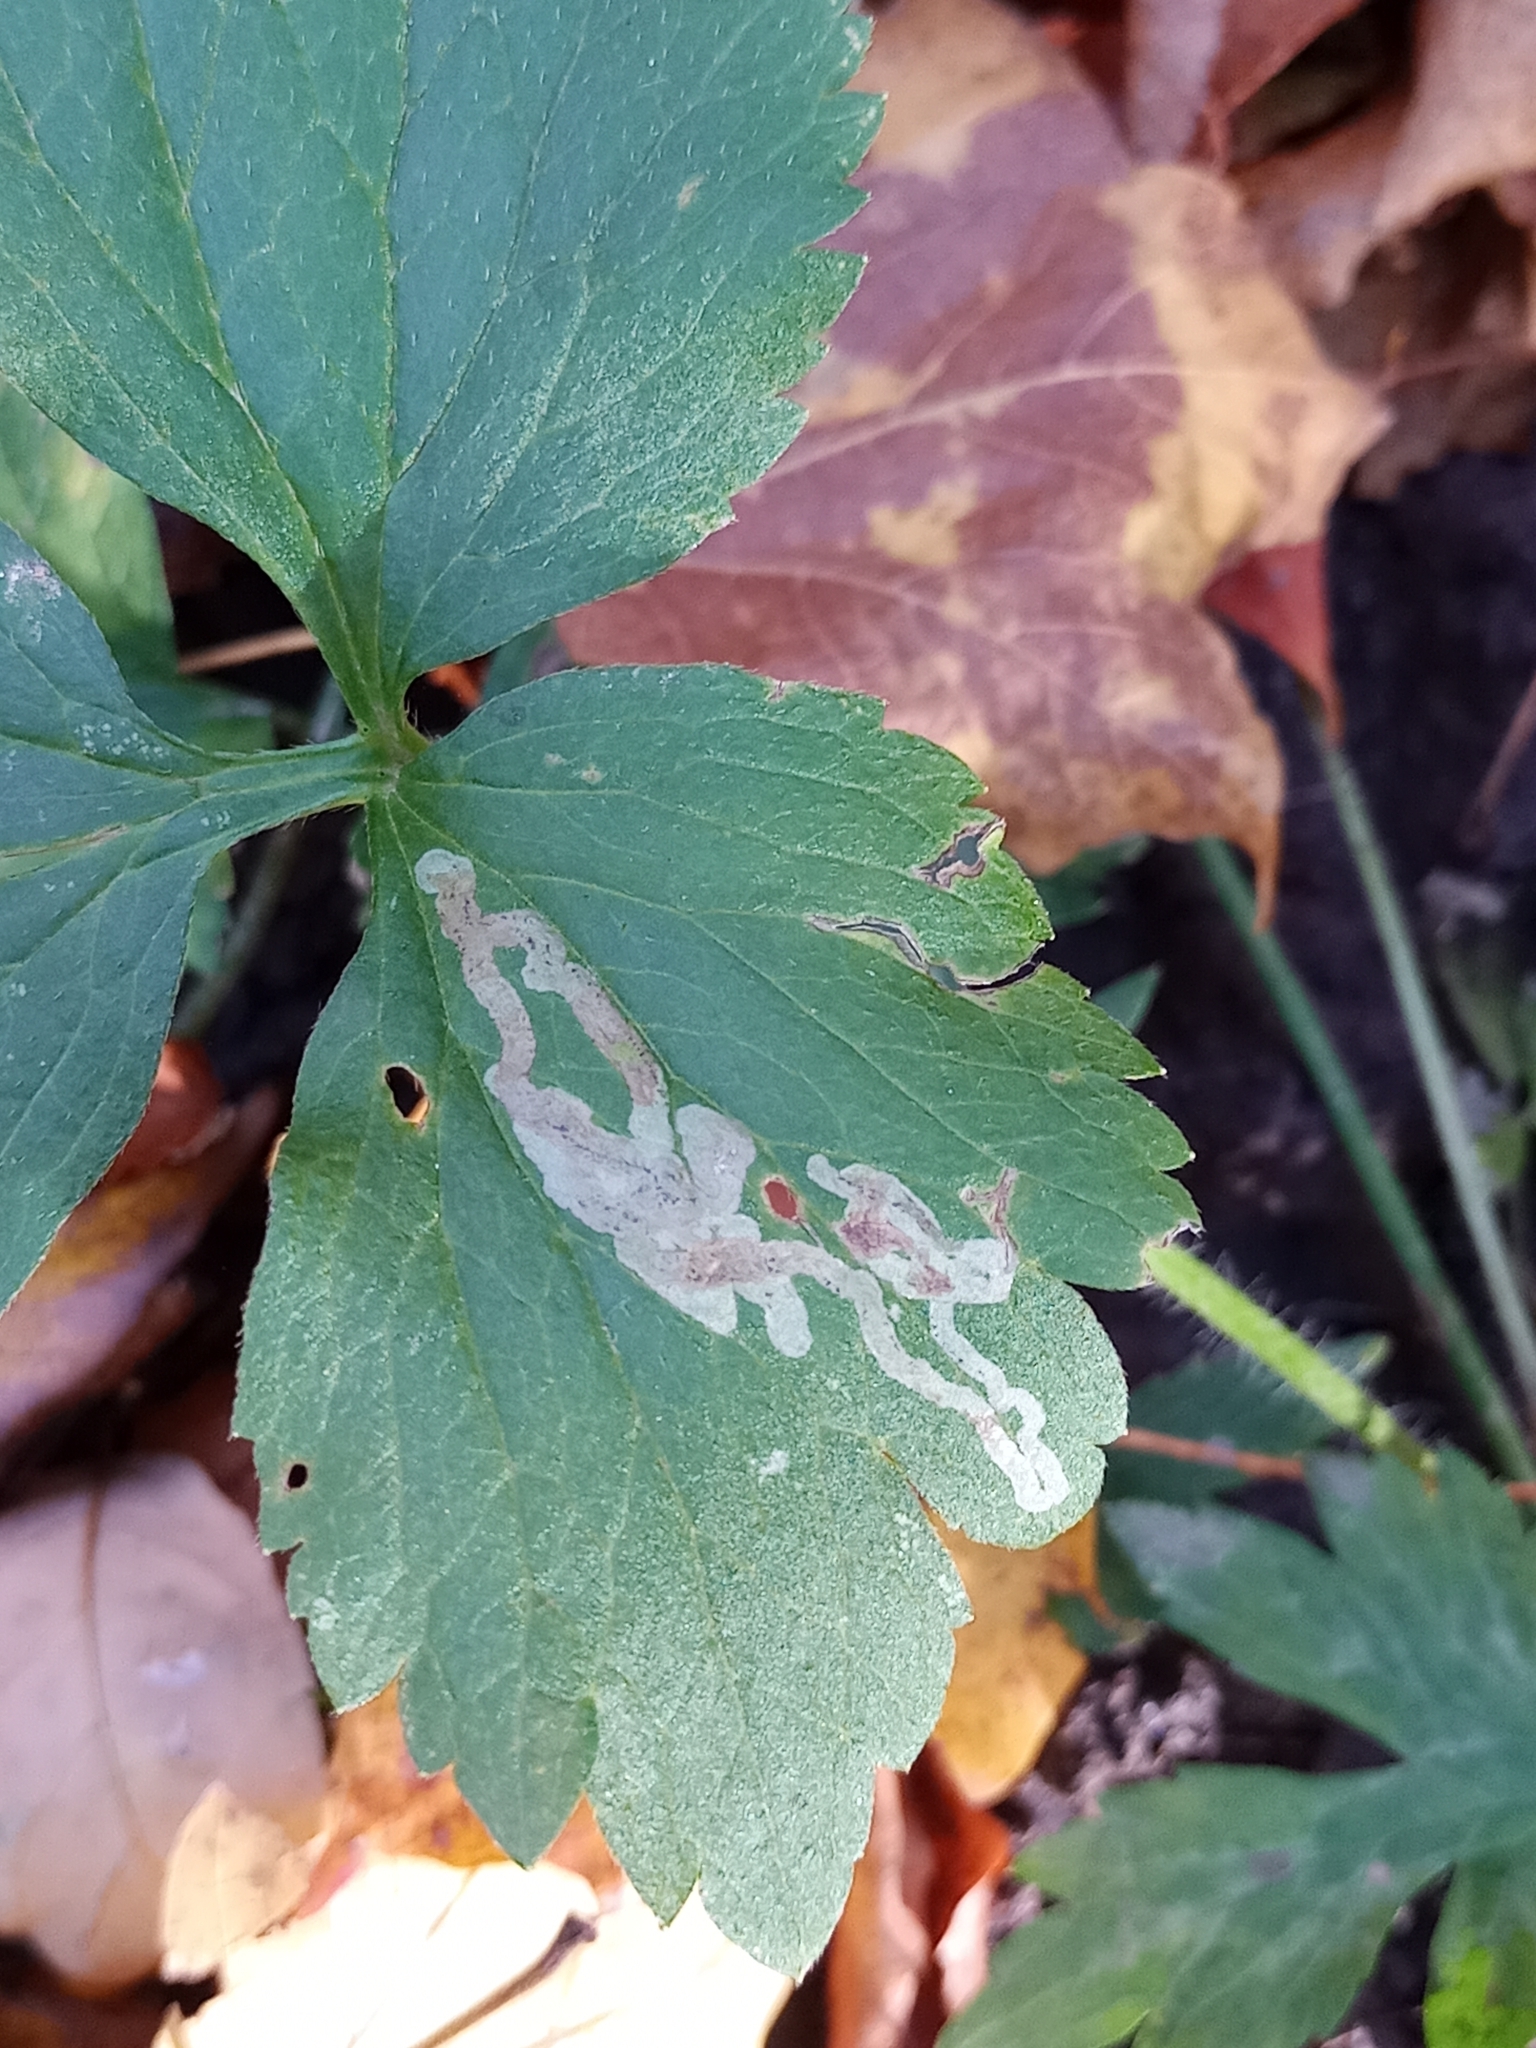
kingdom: Plantae
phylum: Tracheophyta
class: Magnoliopsida
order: Ranunculales
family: Ranunculaceae
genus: Ranunculus
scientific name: Ranunculus hispidus
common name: Bristly buttercup
